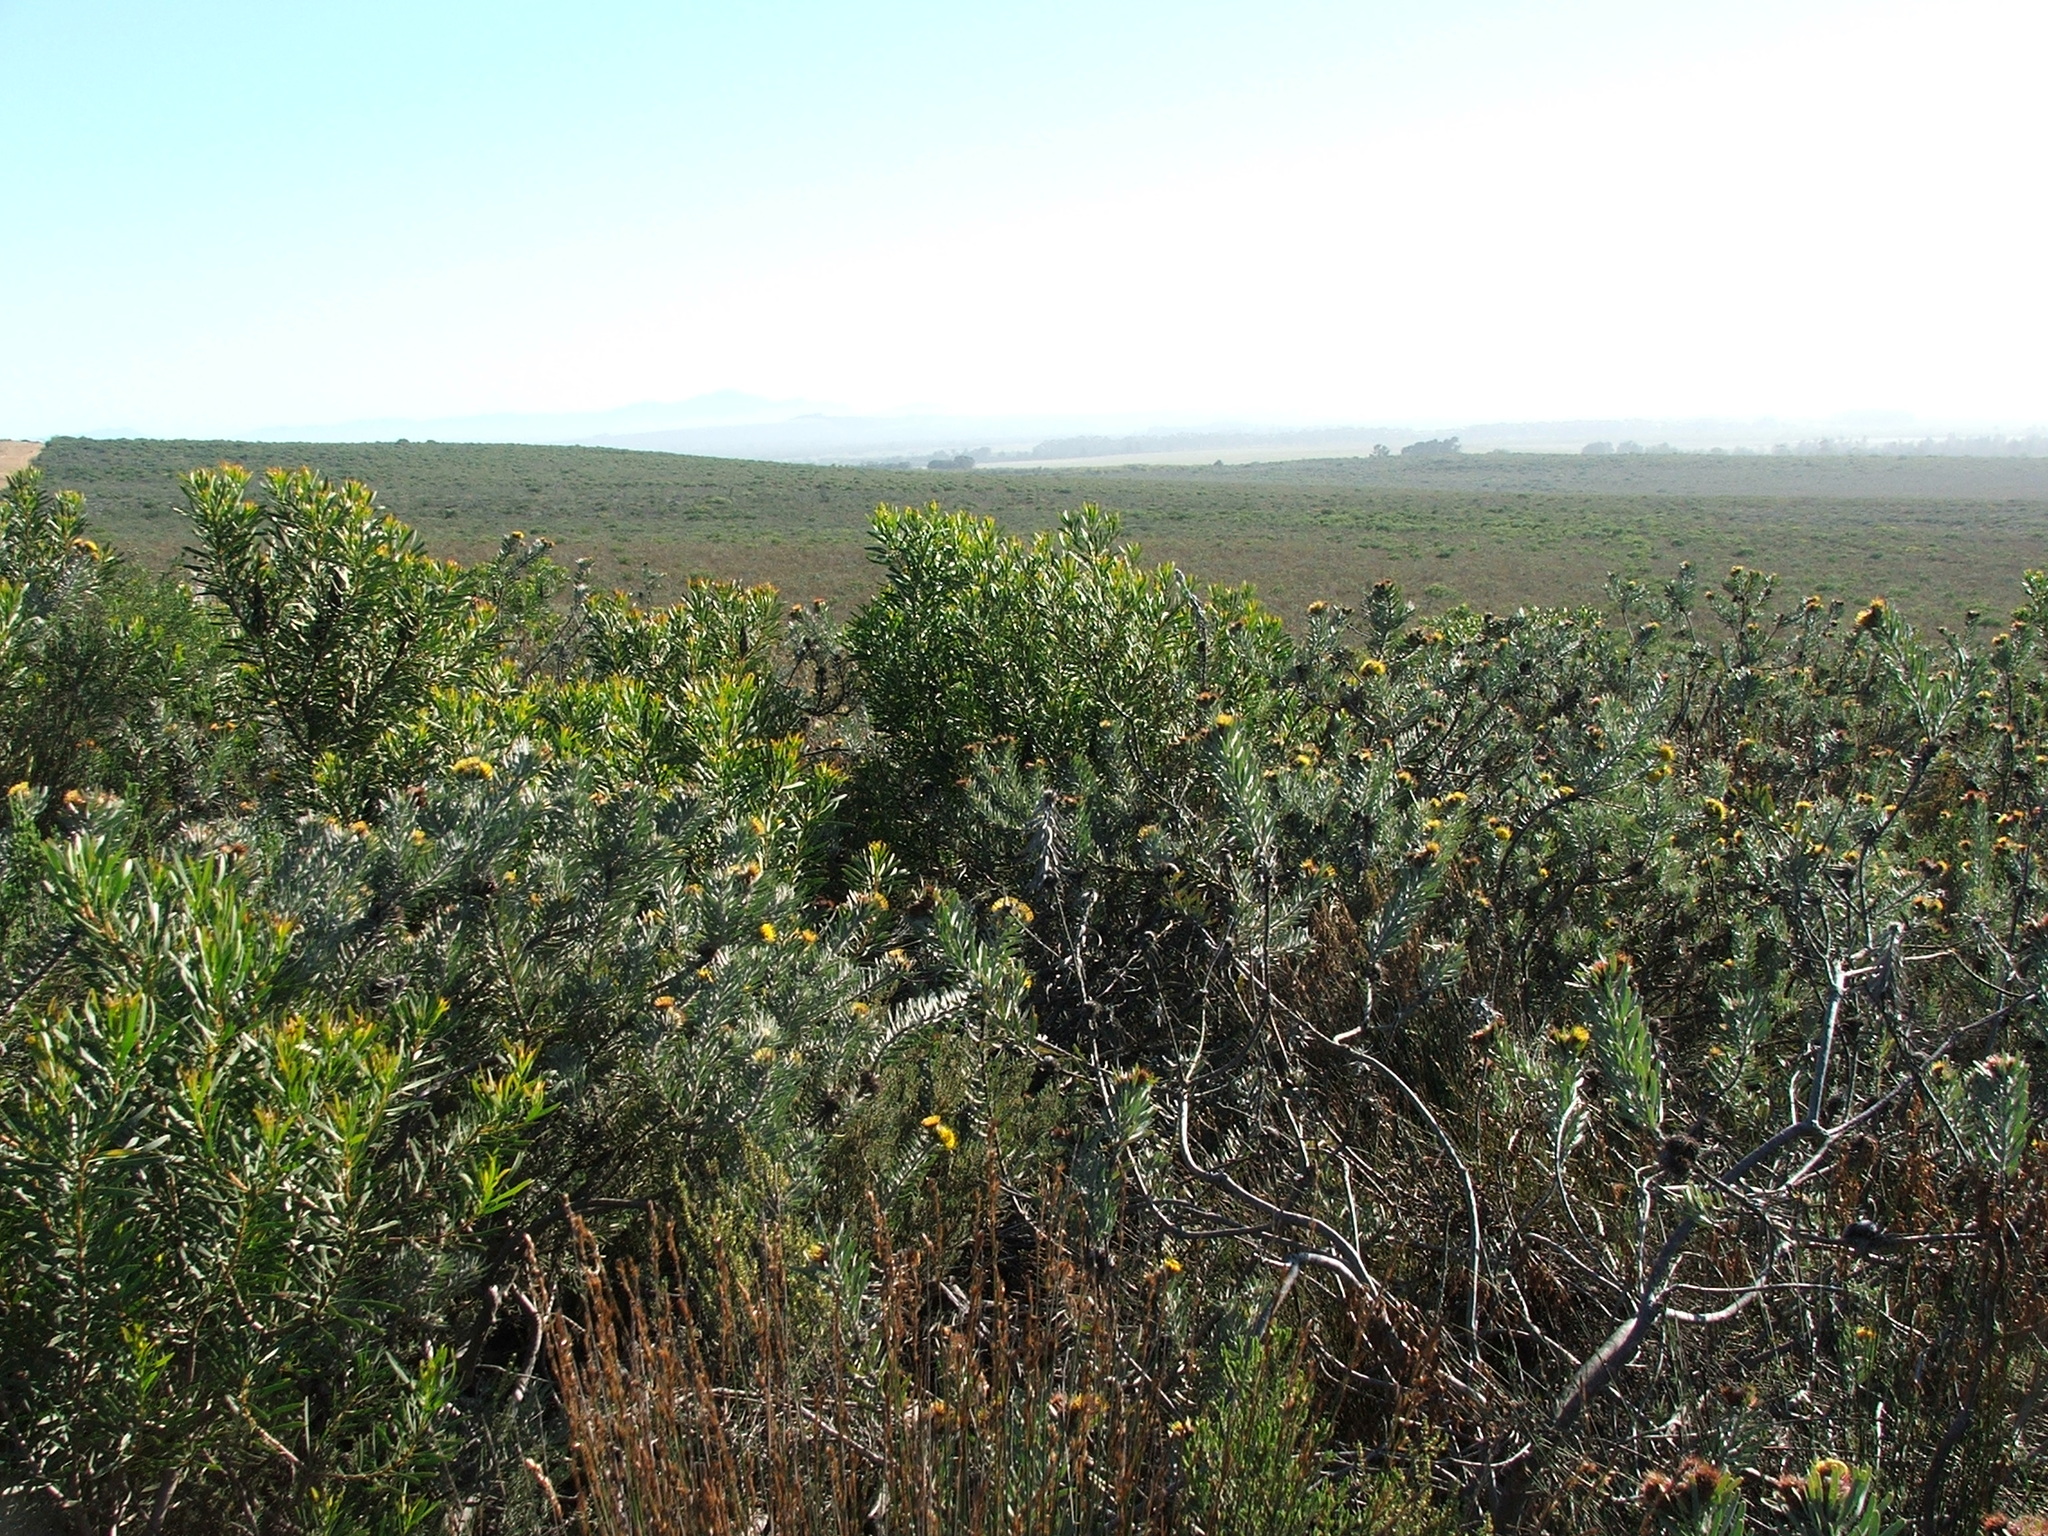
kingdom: Plantae
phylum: Tracheophyta
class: Magnoliopsida
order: Proteales
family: Proteaceae
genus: Leucospermum
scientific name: Leucospermum parile
